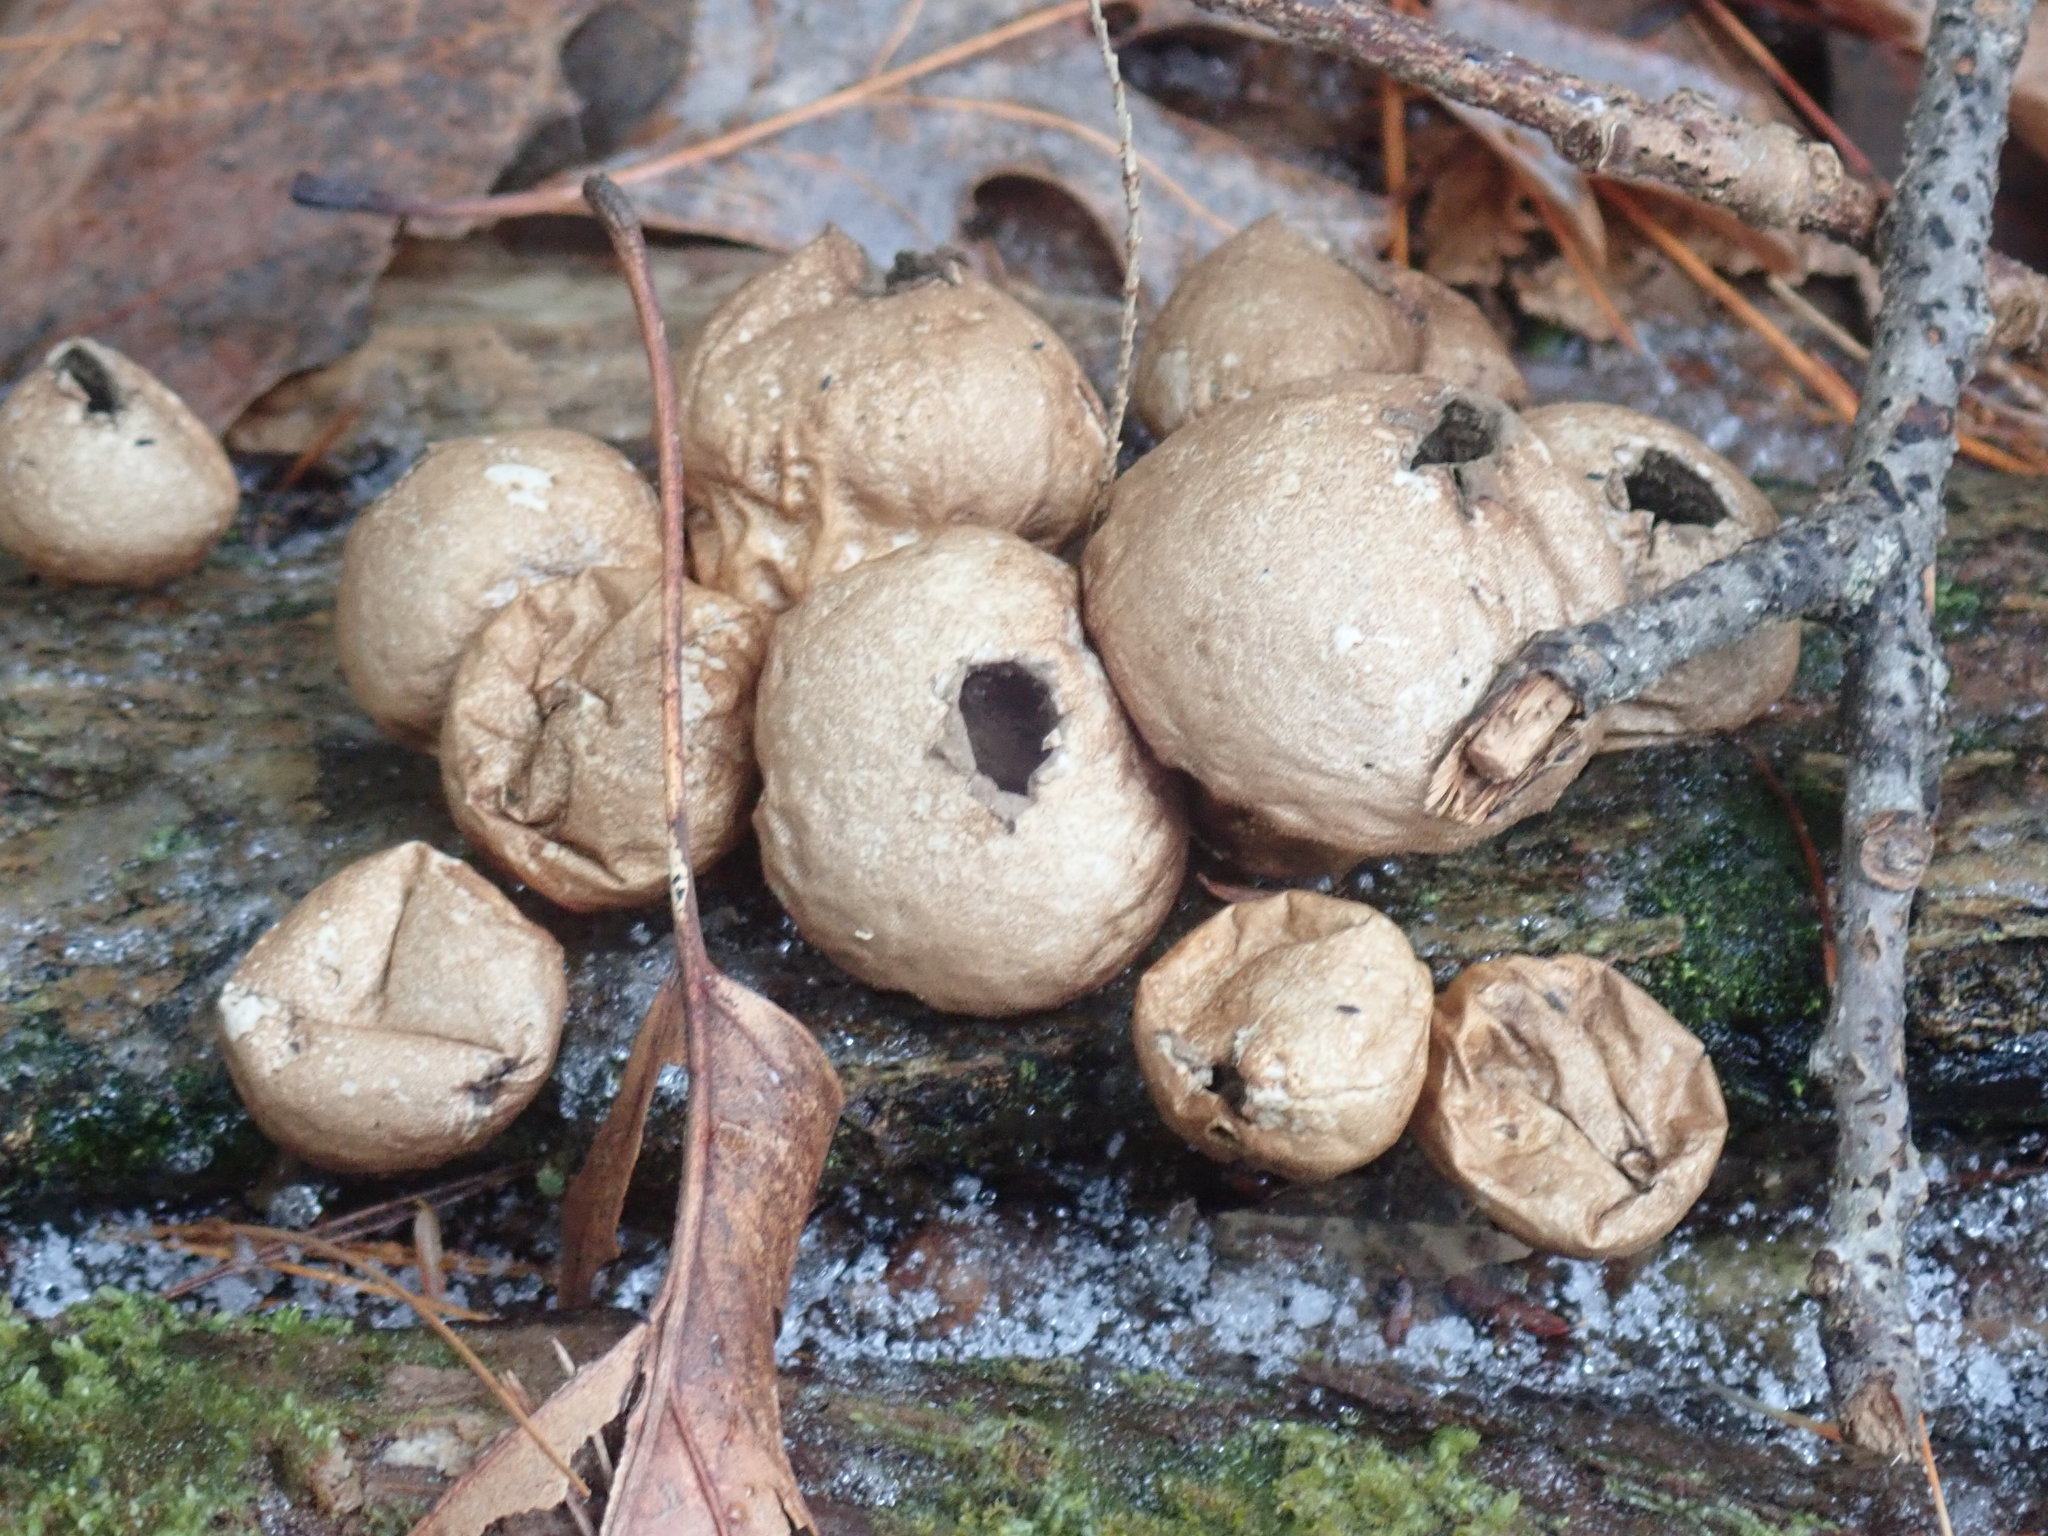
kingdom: Fungi
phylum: Basidiomycota
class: Agaricomycetes
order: Agaricales
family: Lycoperdaceae
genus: Apioperdon
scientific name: Apioperdon pyriforme
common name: Pear-shaped puffball
